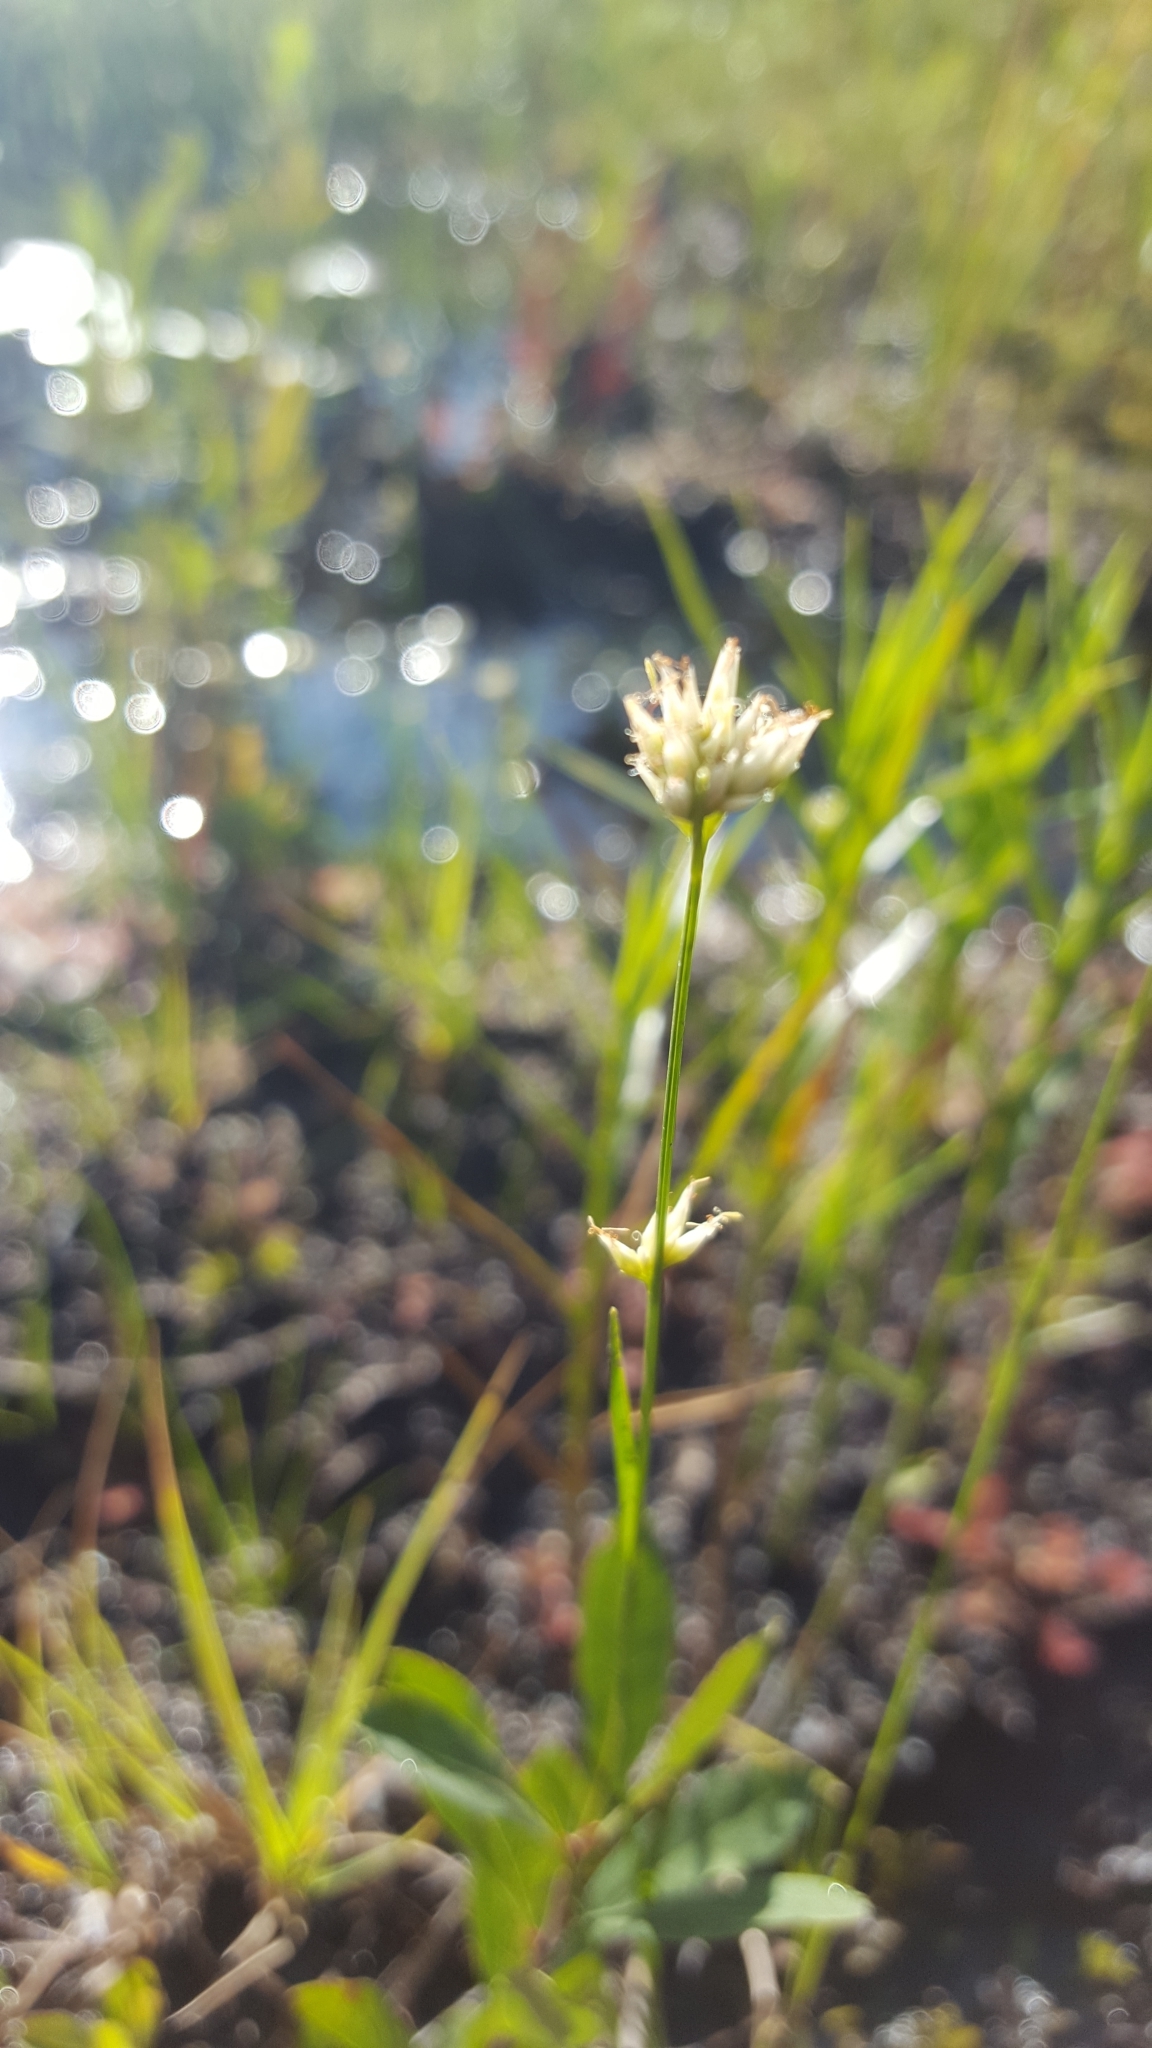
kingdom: Plantae
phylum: Tracheophyta
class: Liliopsida
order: Poales
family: Cyperaceae
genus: Rhynchospora
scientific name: Rhynchospora alba
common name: White beak-sedge
